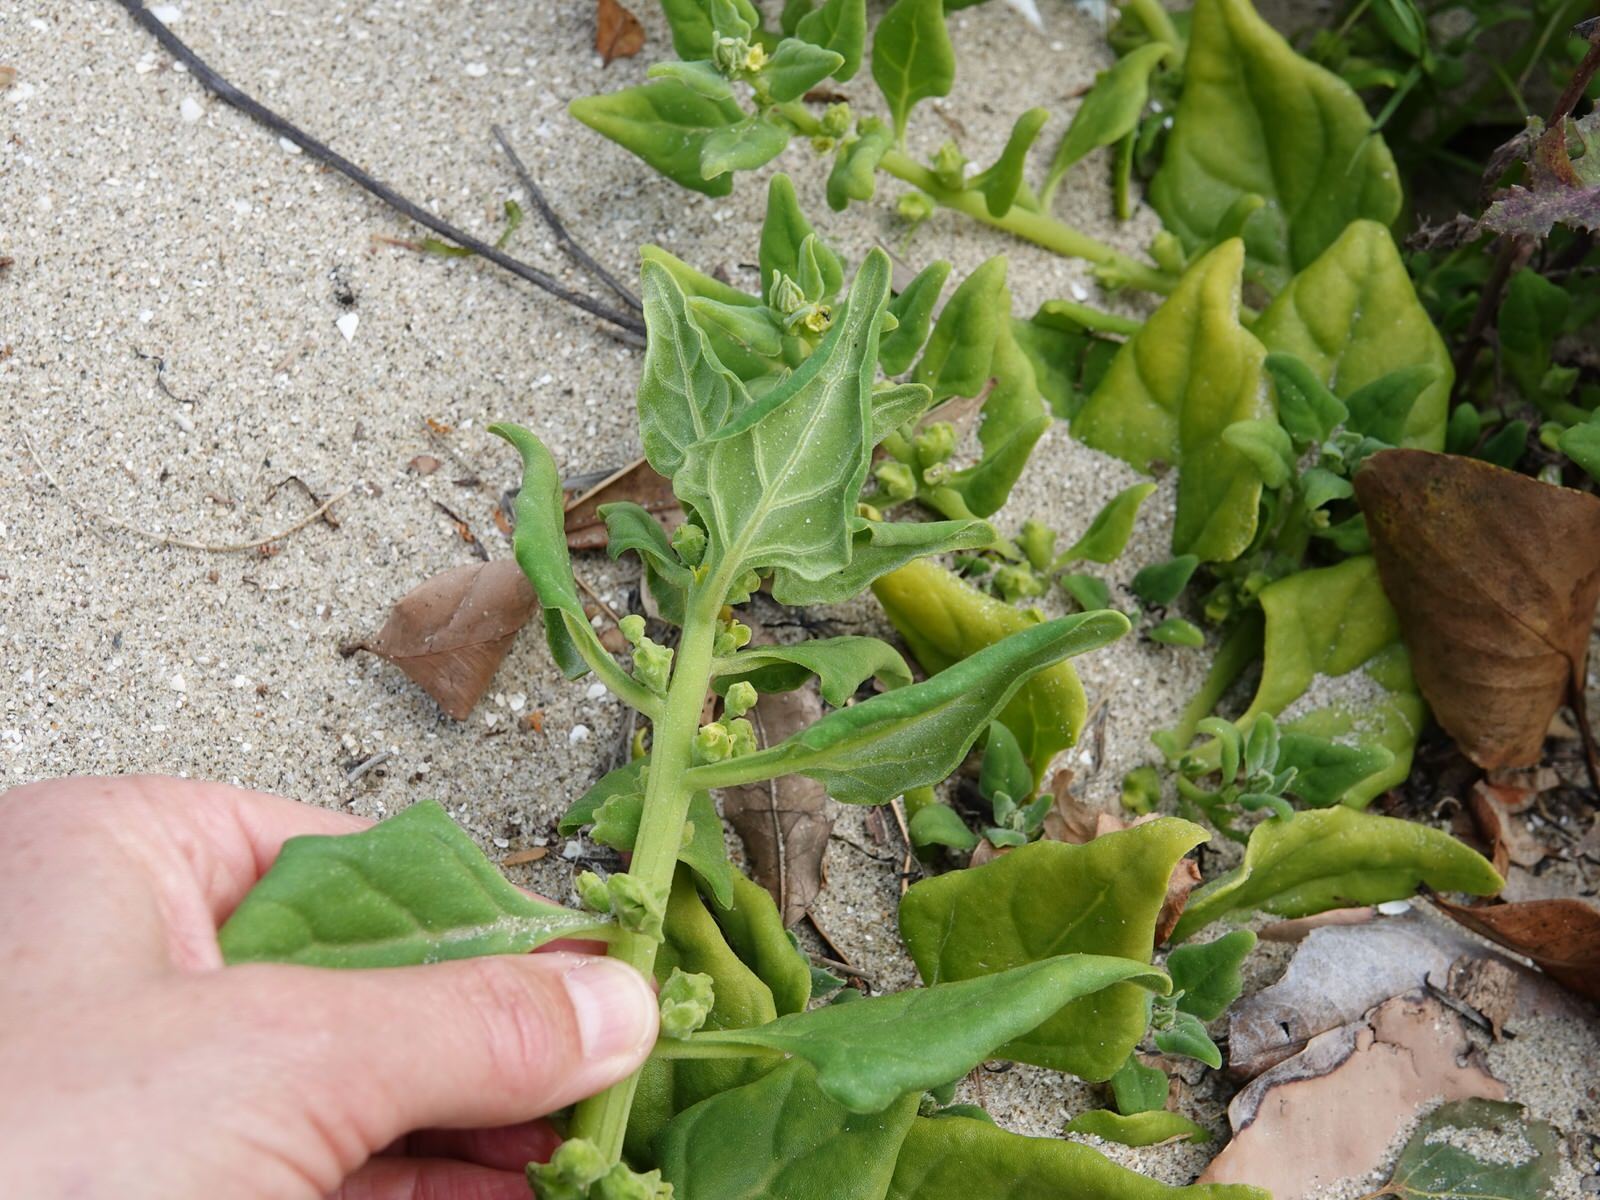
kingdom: Plantae
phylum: Tracheophyta
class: Magnoliopsida
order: Caryophyllales
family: Aizoaceae
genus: Tetragonia
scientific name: Tetragonia tetragonoides
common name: New zealand-spinach
